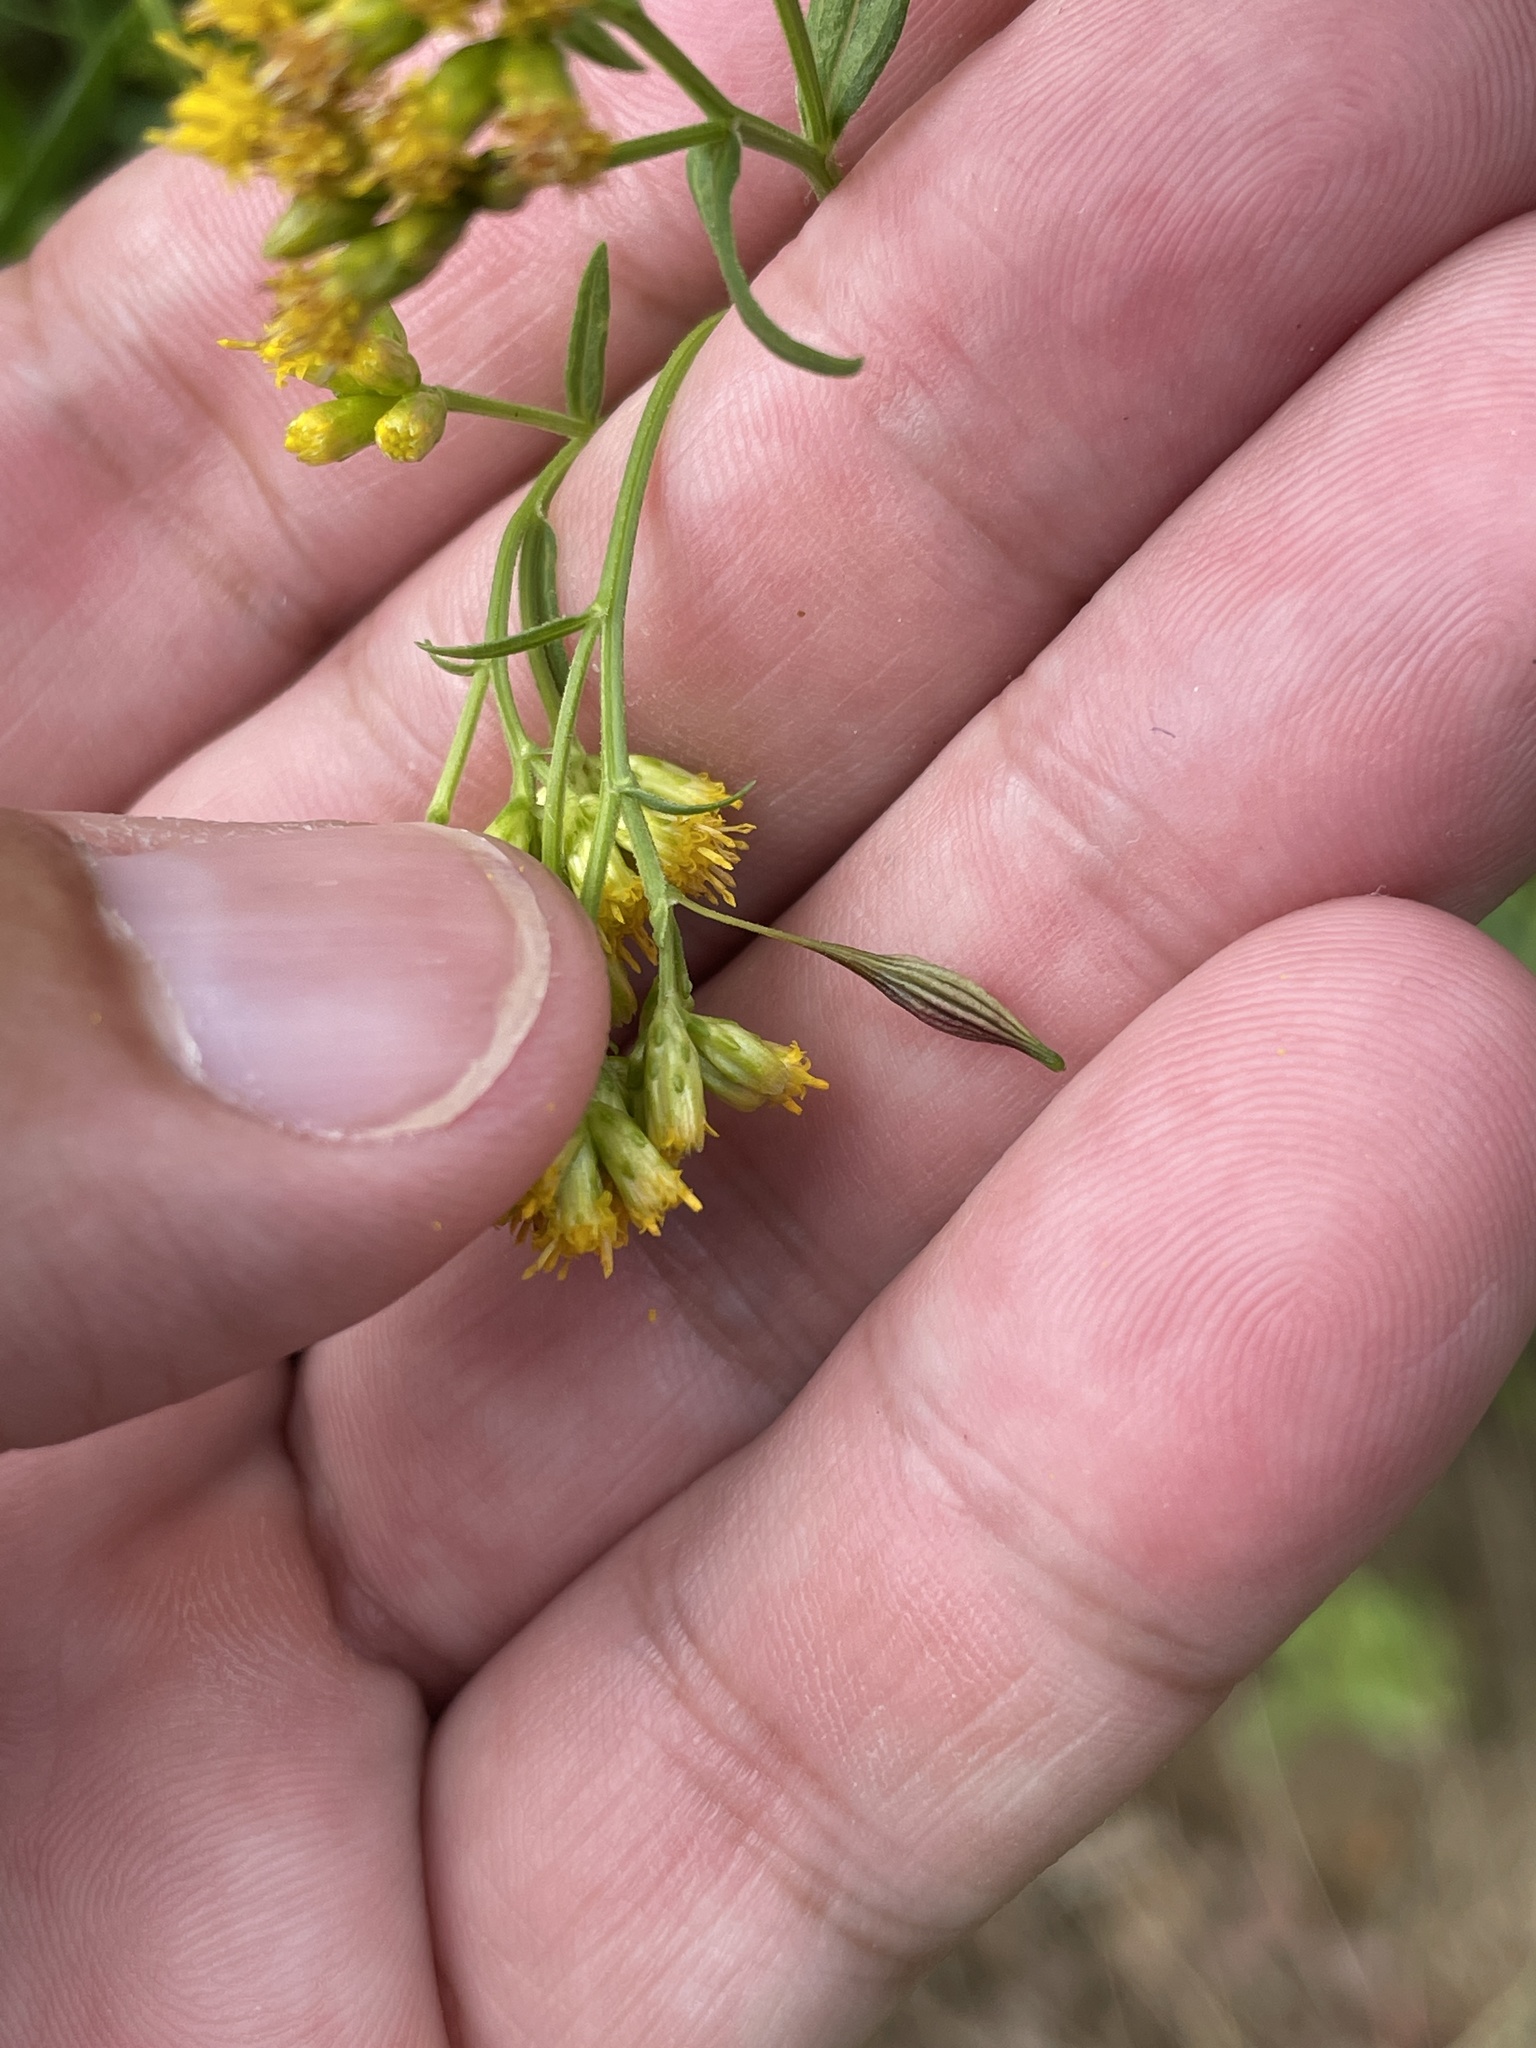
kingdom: Animalia
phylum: Arthropoda
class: Insecta
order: Diptera
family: Cecidomyiidae
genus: Rhopalomyia
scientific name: Rhopalomyia pedicellata
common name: Goldentop pedicellate gall midge
